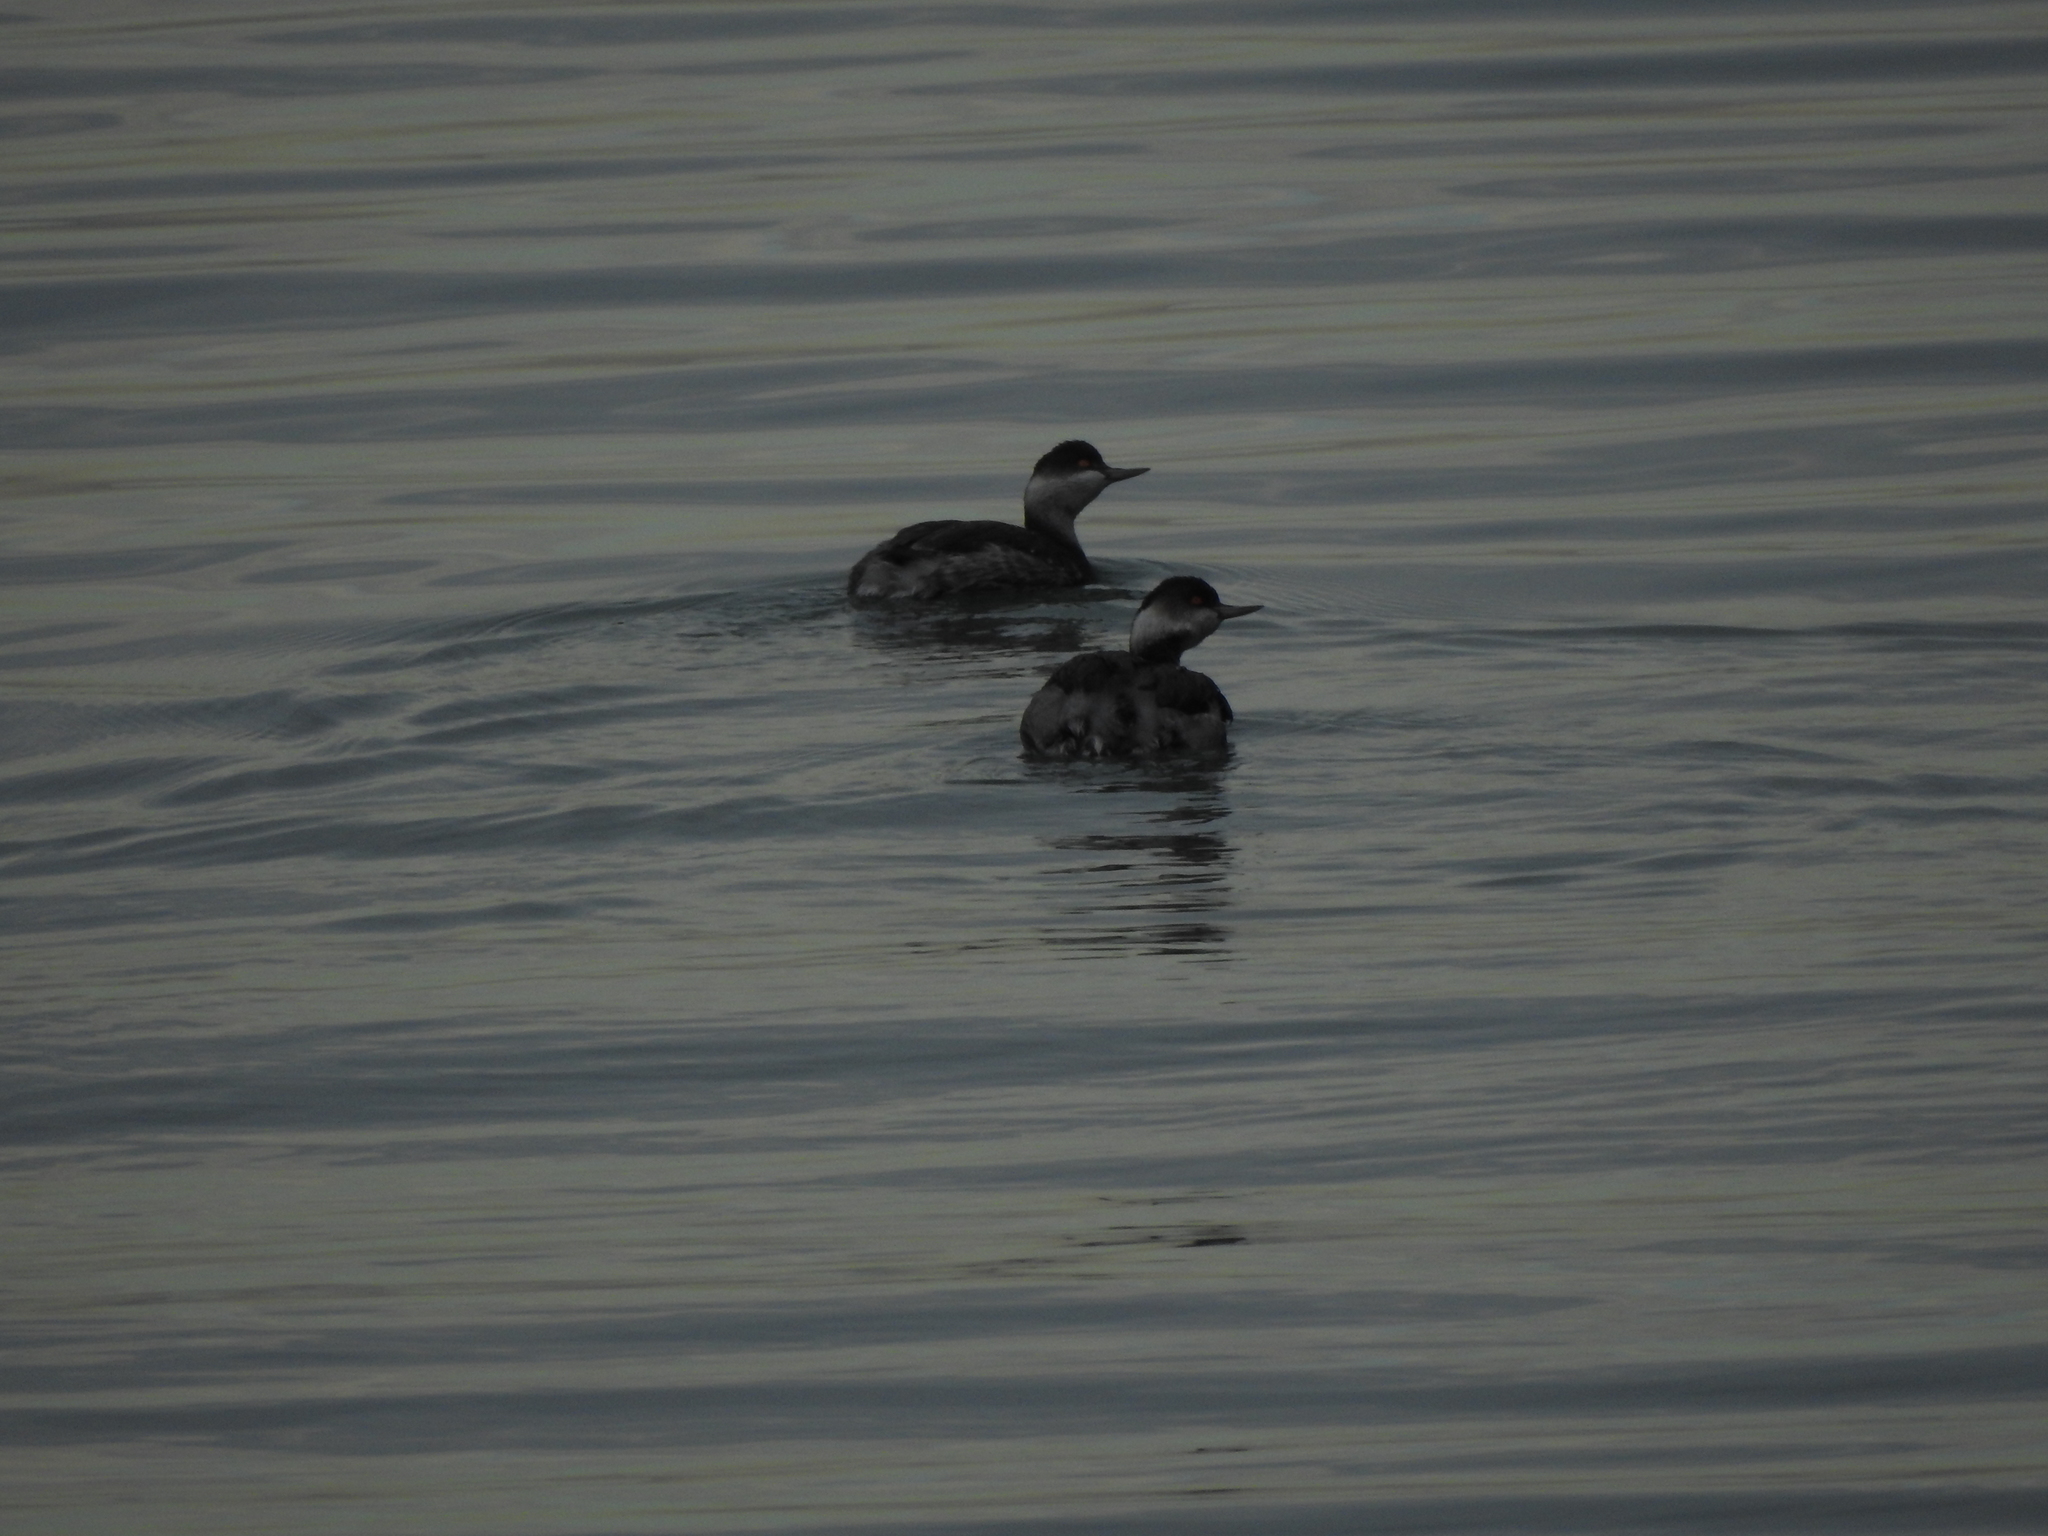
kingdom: Animalia
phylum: Chordata
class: Aves
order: Podicipediformes
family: Podicipedidae
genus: Podiceps
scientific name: Podiceps nigricollis
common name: Black-necked grebe
